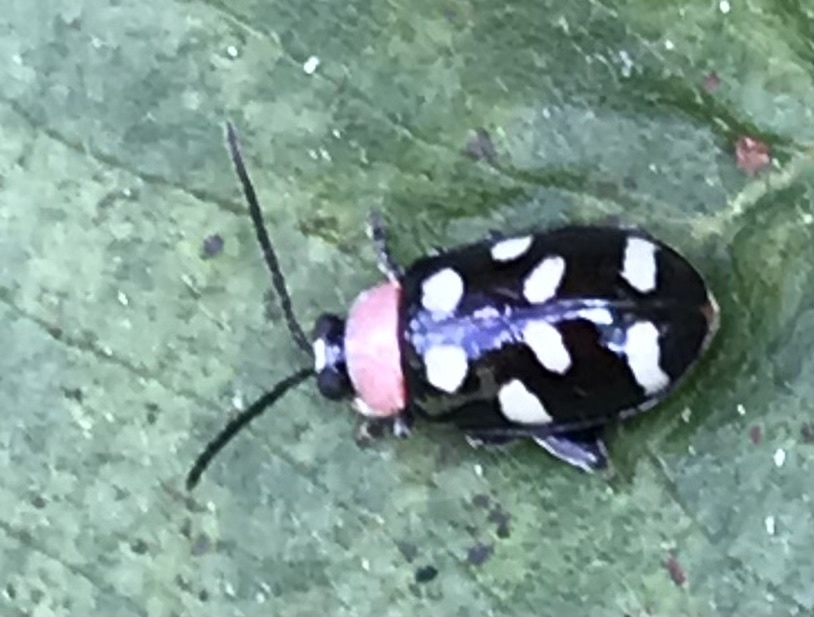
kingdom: Animalia
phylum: Arthropoda
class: Insecta
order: Coleoptera
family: Chrysomelidae
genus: Omophoita
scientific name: Omophoita aequinoctialis
